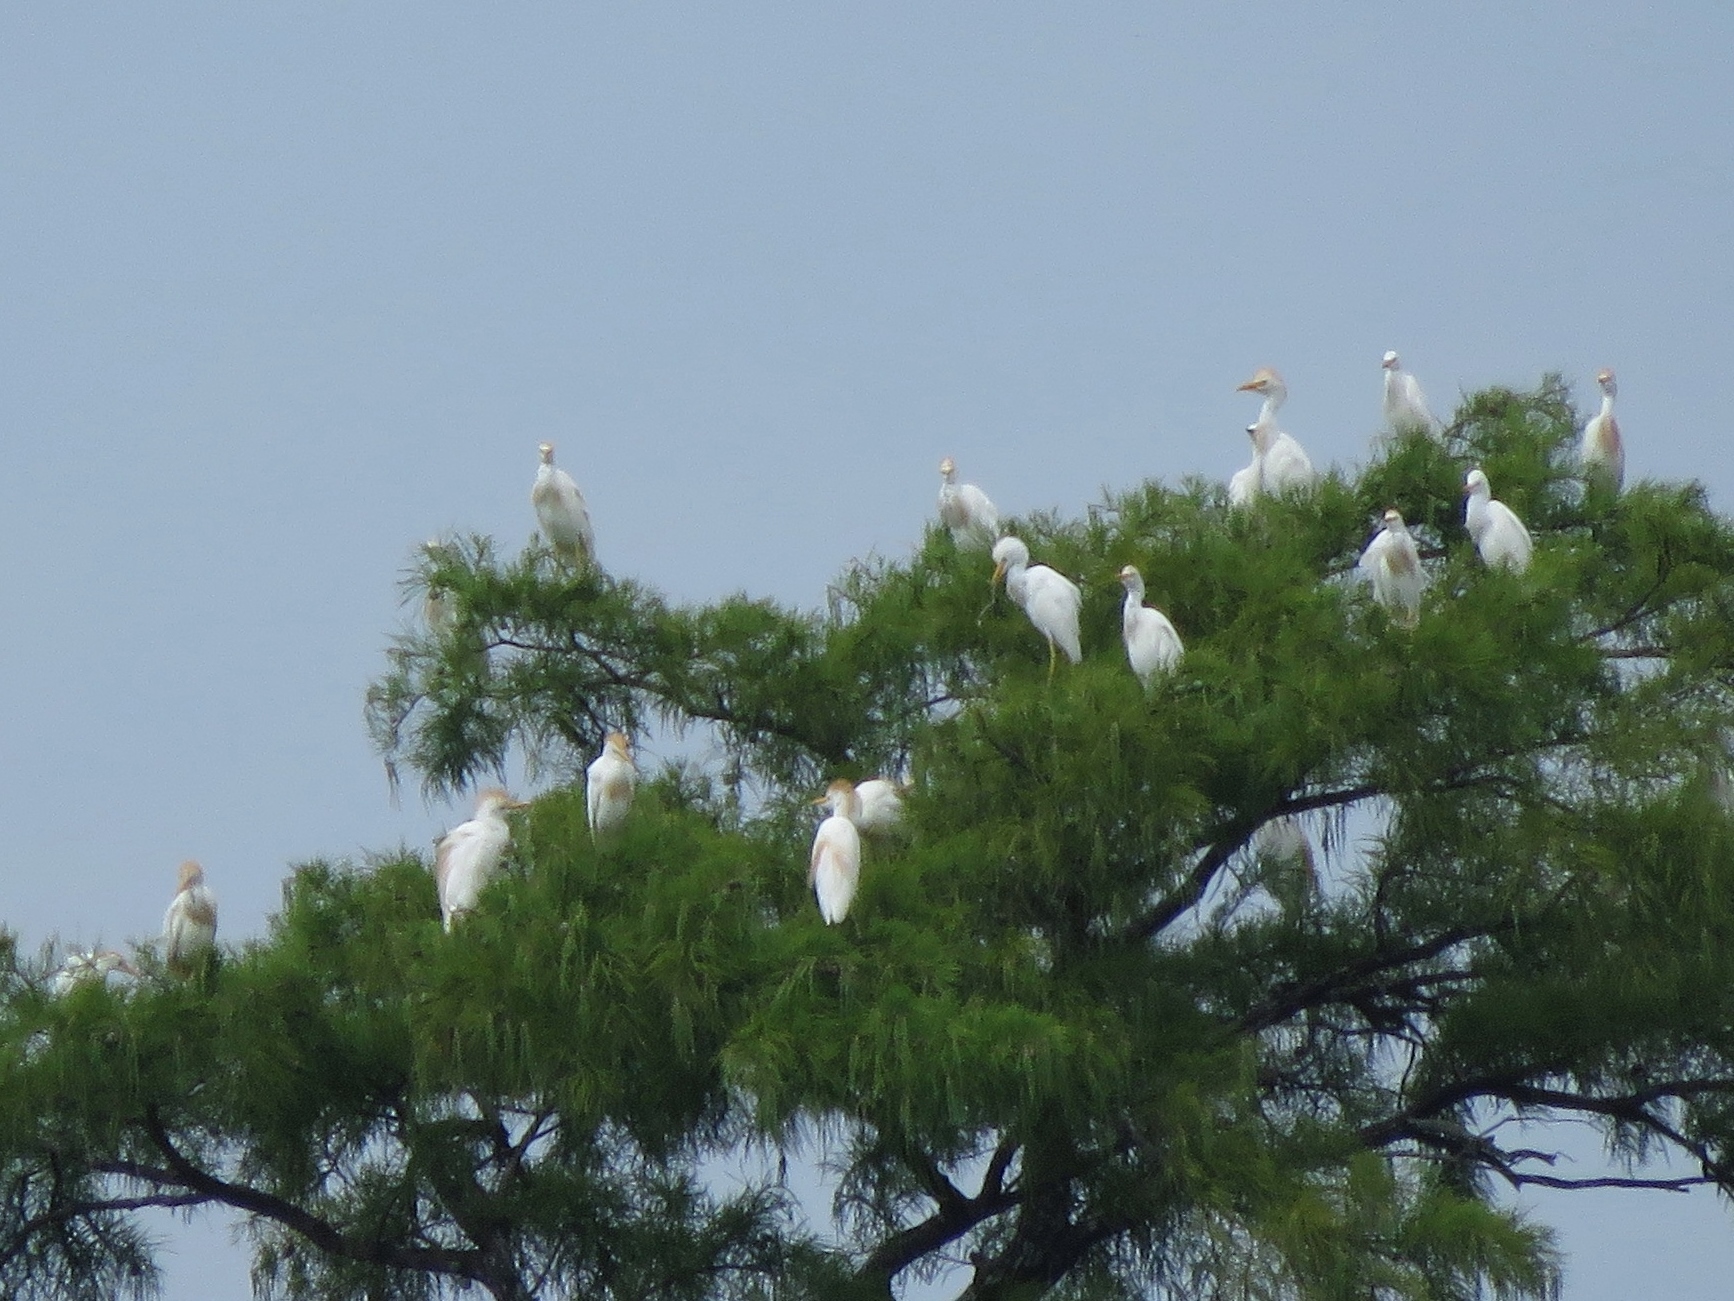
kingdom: Animalia
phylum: Chordata
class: Aves
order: Pelecaniformes
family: Ardeidae
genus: Bubulcus
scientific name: Bubulcus ibis
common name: Cattle egret
